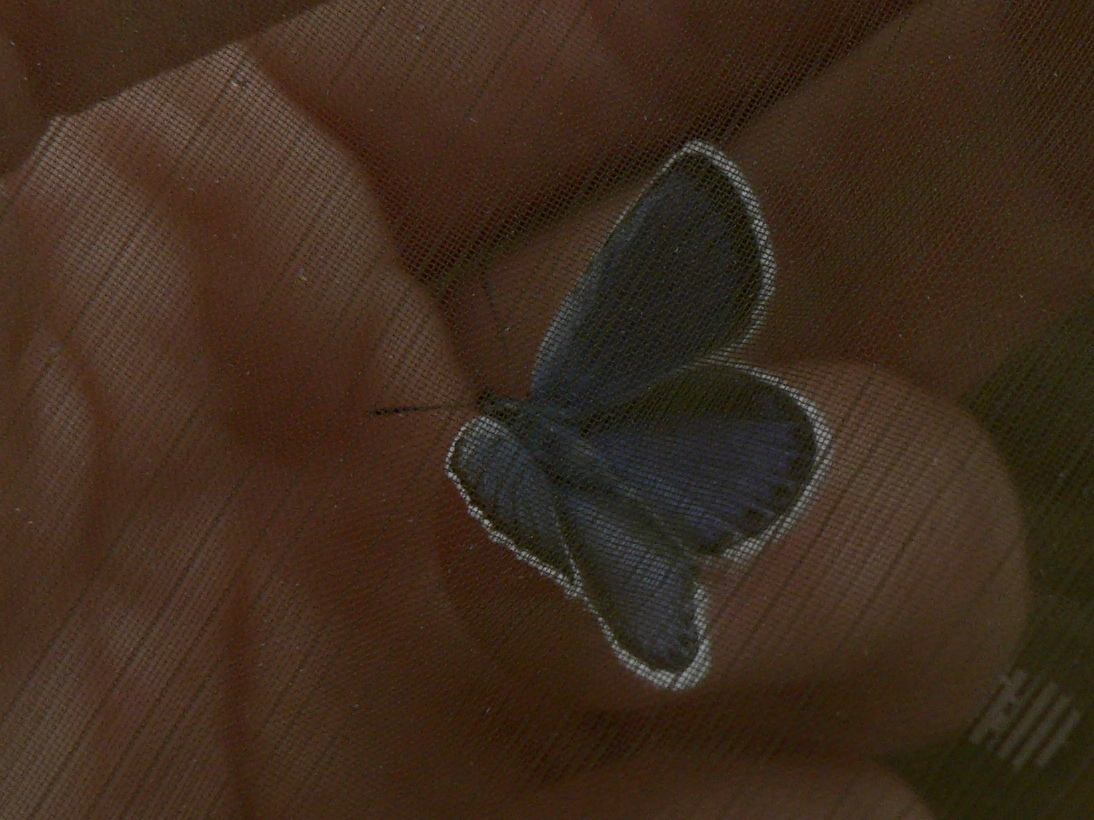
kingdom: Animalia
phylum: Arthropoda
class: Insecta
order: Lepidoptera
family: Lycaenidae
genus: Plebejus
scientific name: Plebejus argus
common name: Silver-studded blue
